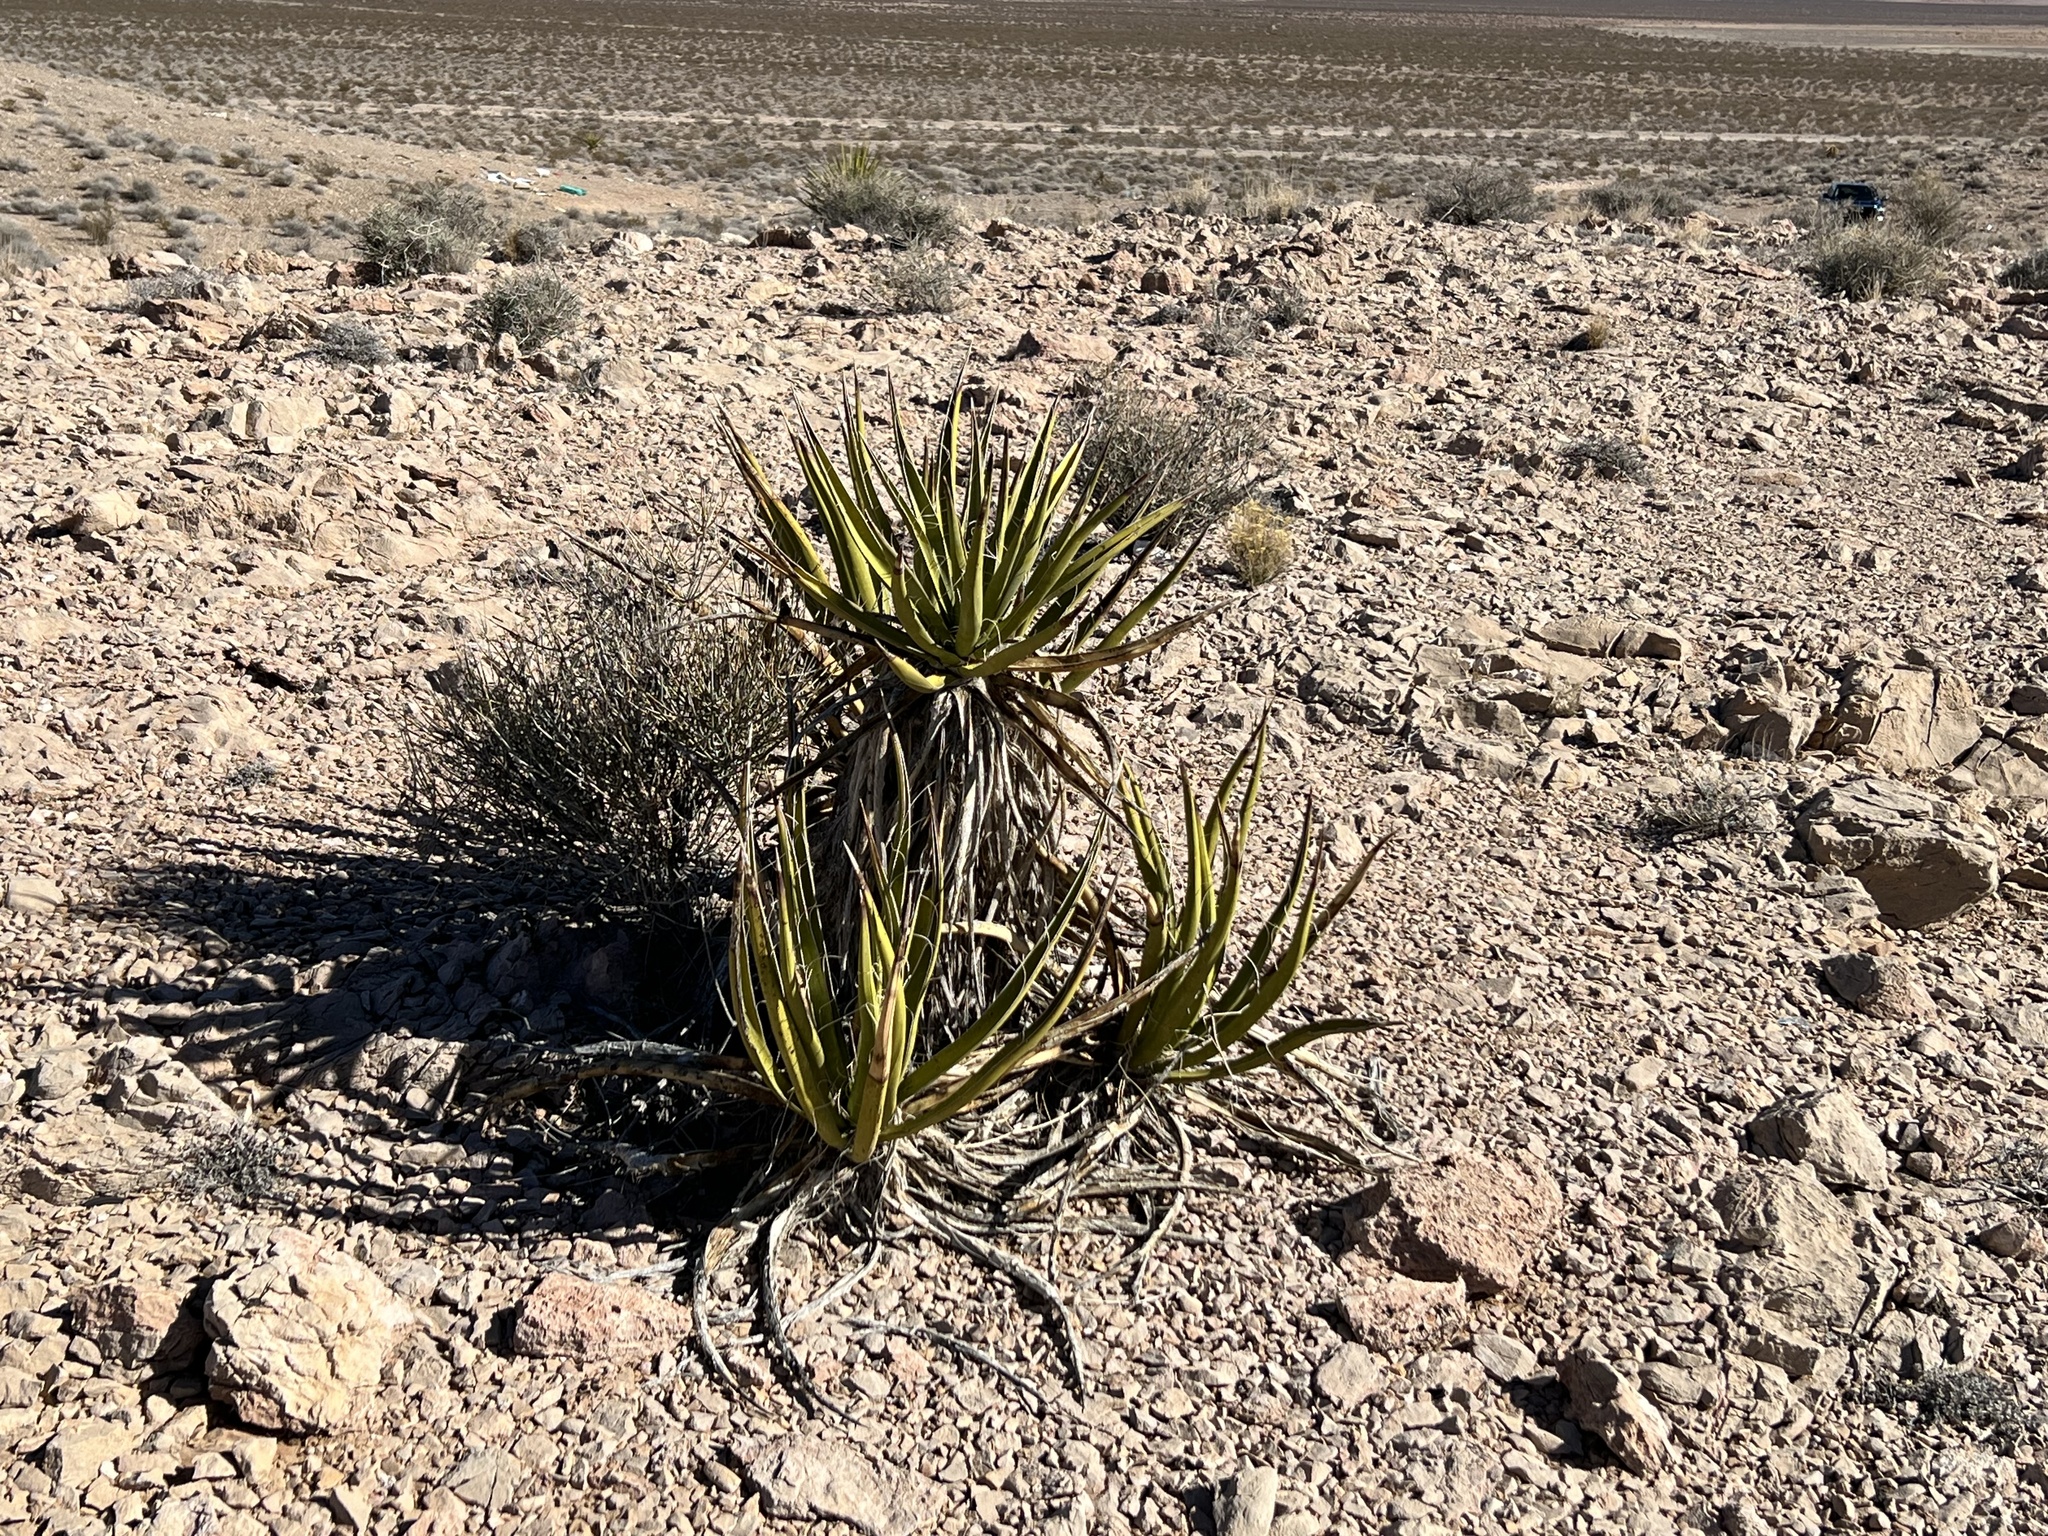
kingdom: Plantae
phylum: Tracheophyta
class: Liliopsida
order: Asparagales
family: Asparagaceae
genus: Yucca
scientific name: Yucca schidigera
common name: Mojave yucca
